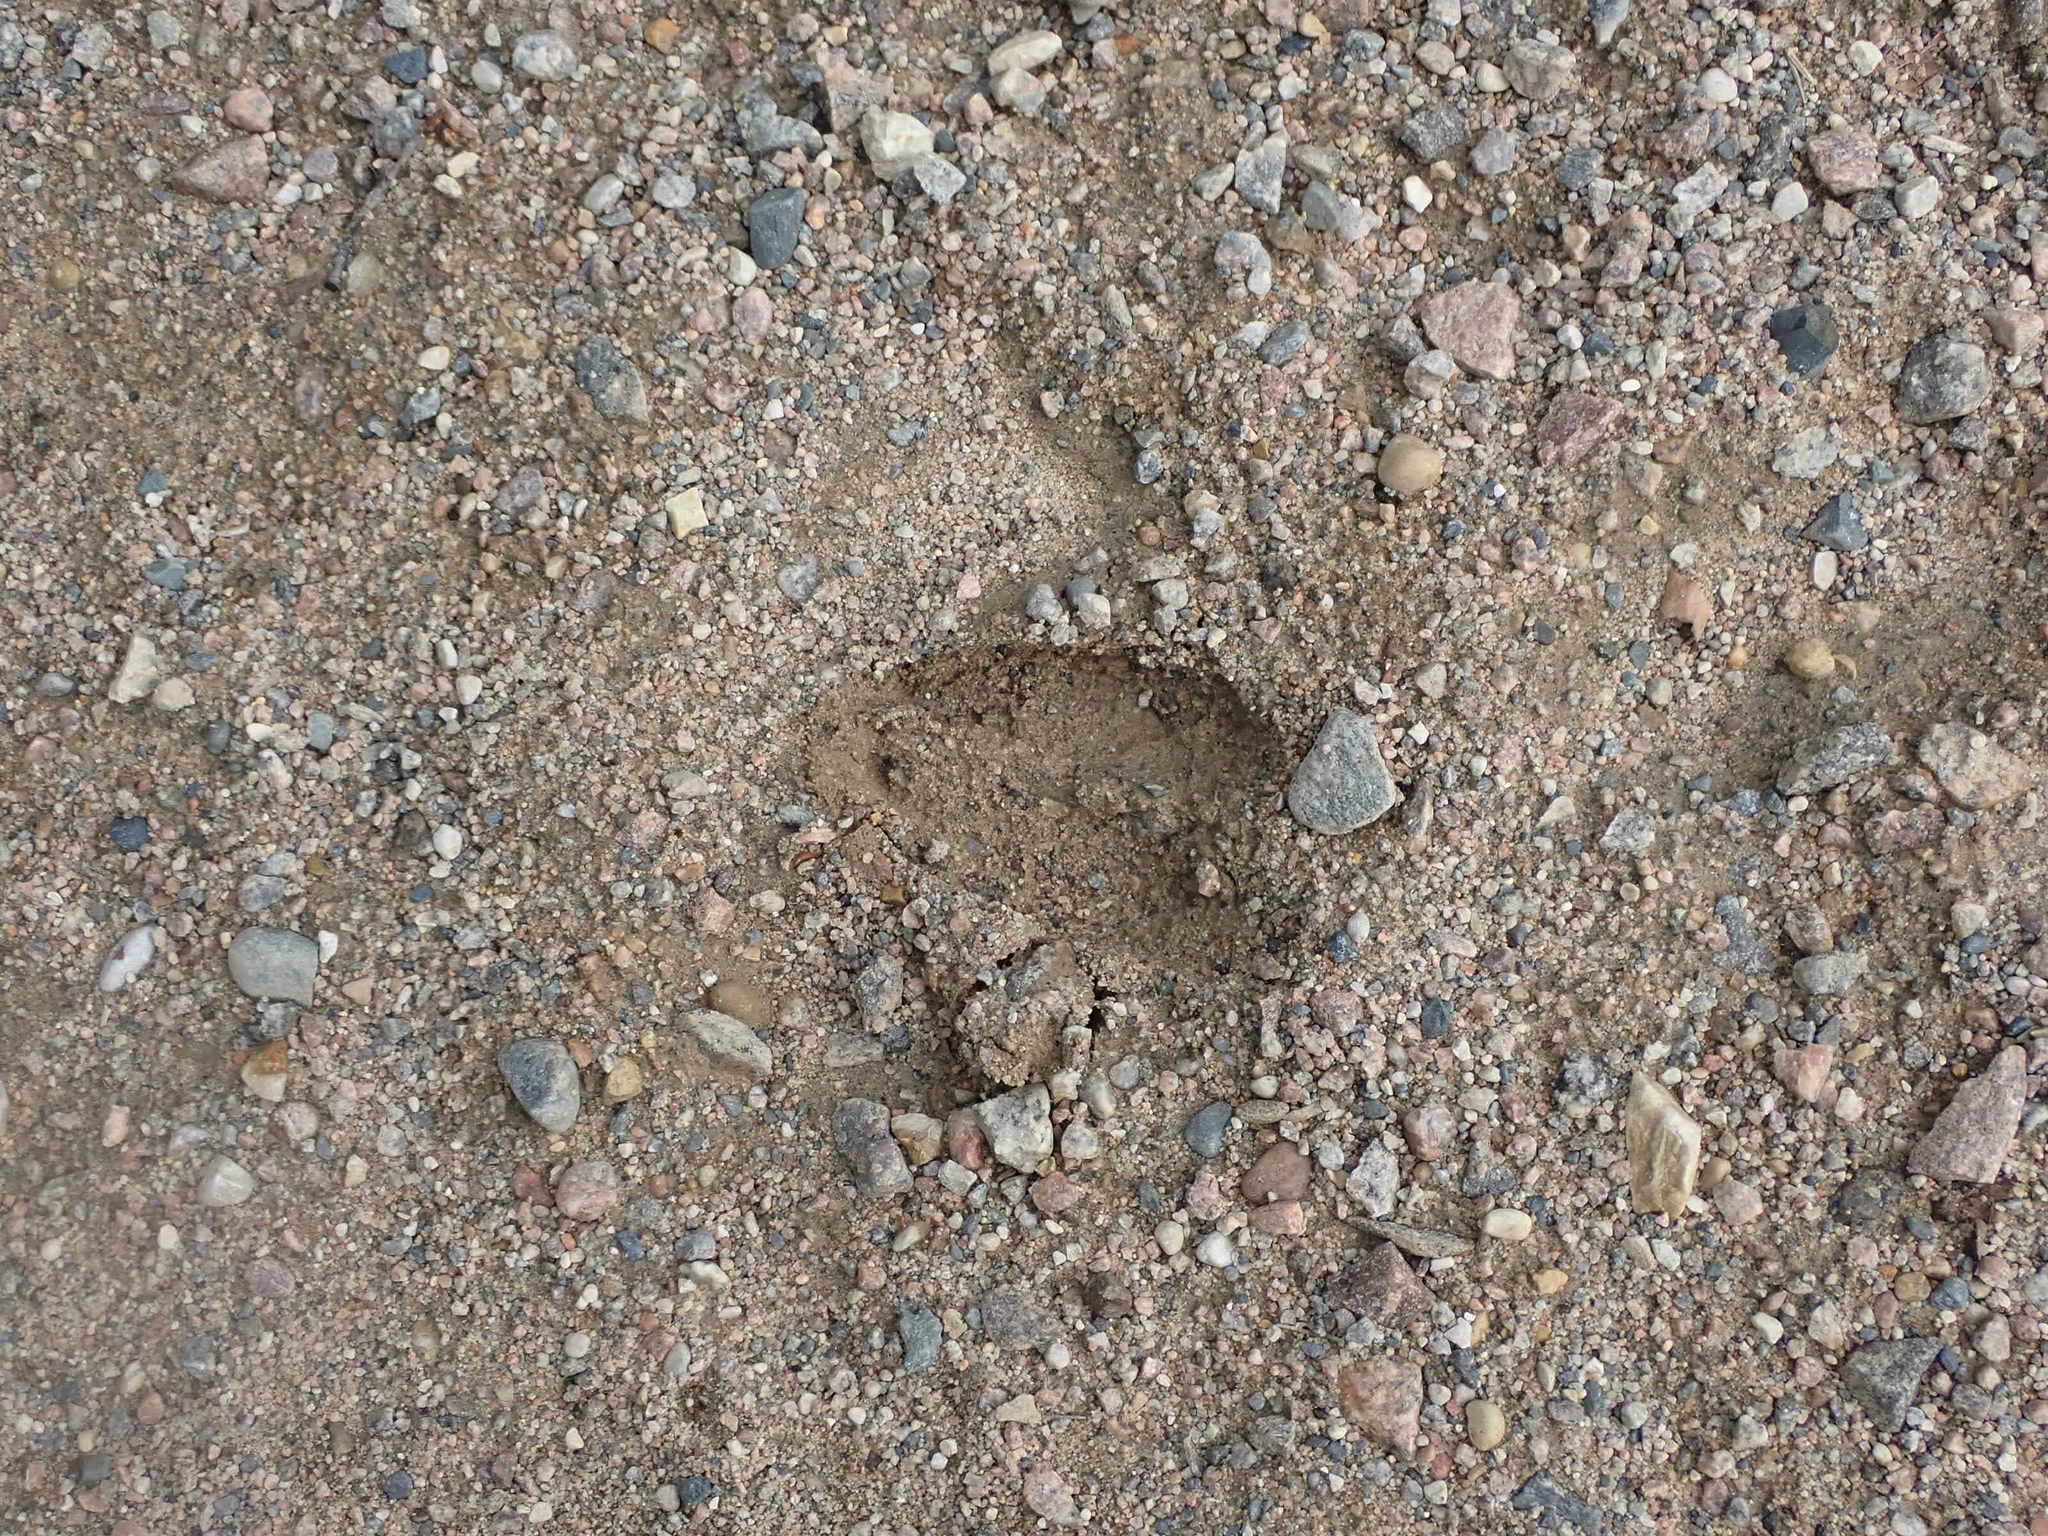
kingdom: Animalia
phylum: Chordata
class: Mammalia
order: Artiodactyla
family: Cervidae
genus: Odocoileus
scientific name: Odocoileus virginianus
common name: White-tailed deer
